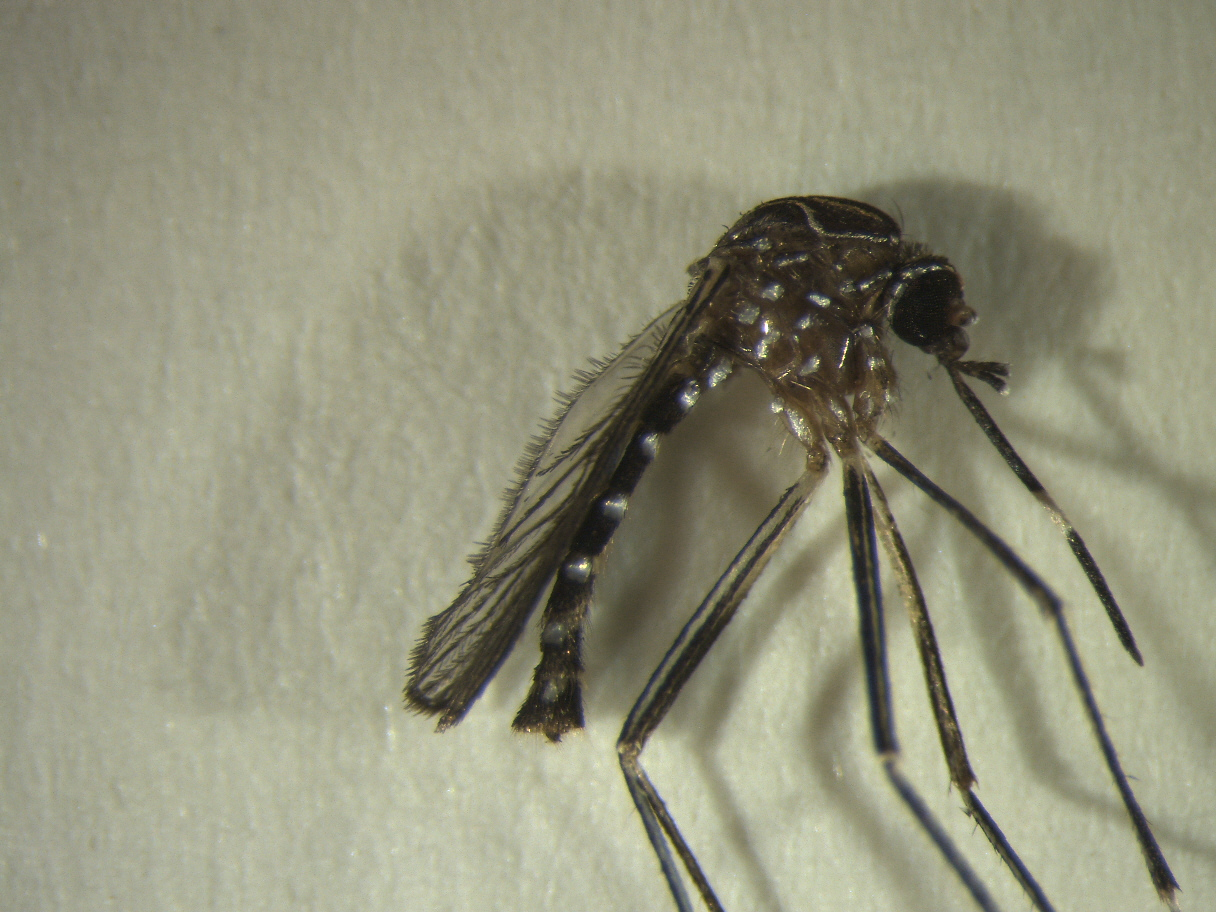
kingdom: Animalia
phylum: Arthropoda
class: Insecta
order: Diptera
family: Culicidae
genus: Aedes
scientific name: Aedes notoscriptus
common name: Australian backyard mosquito
